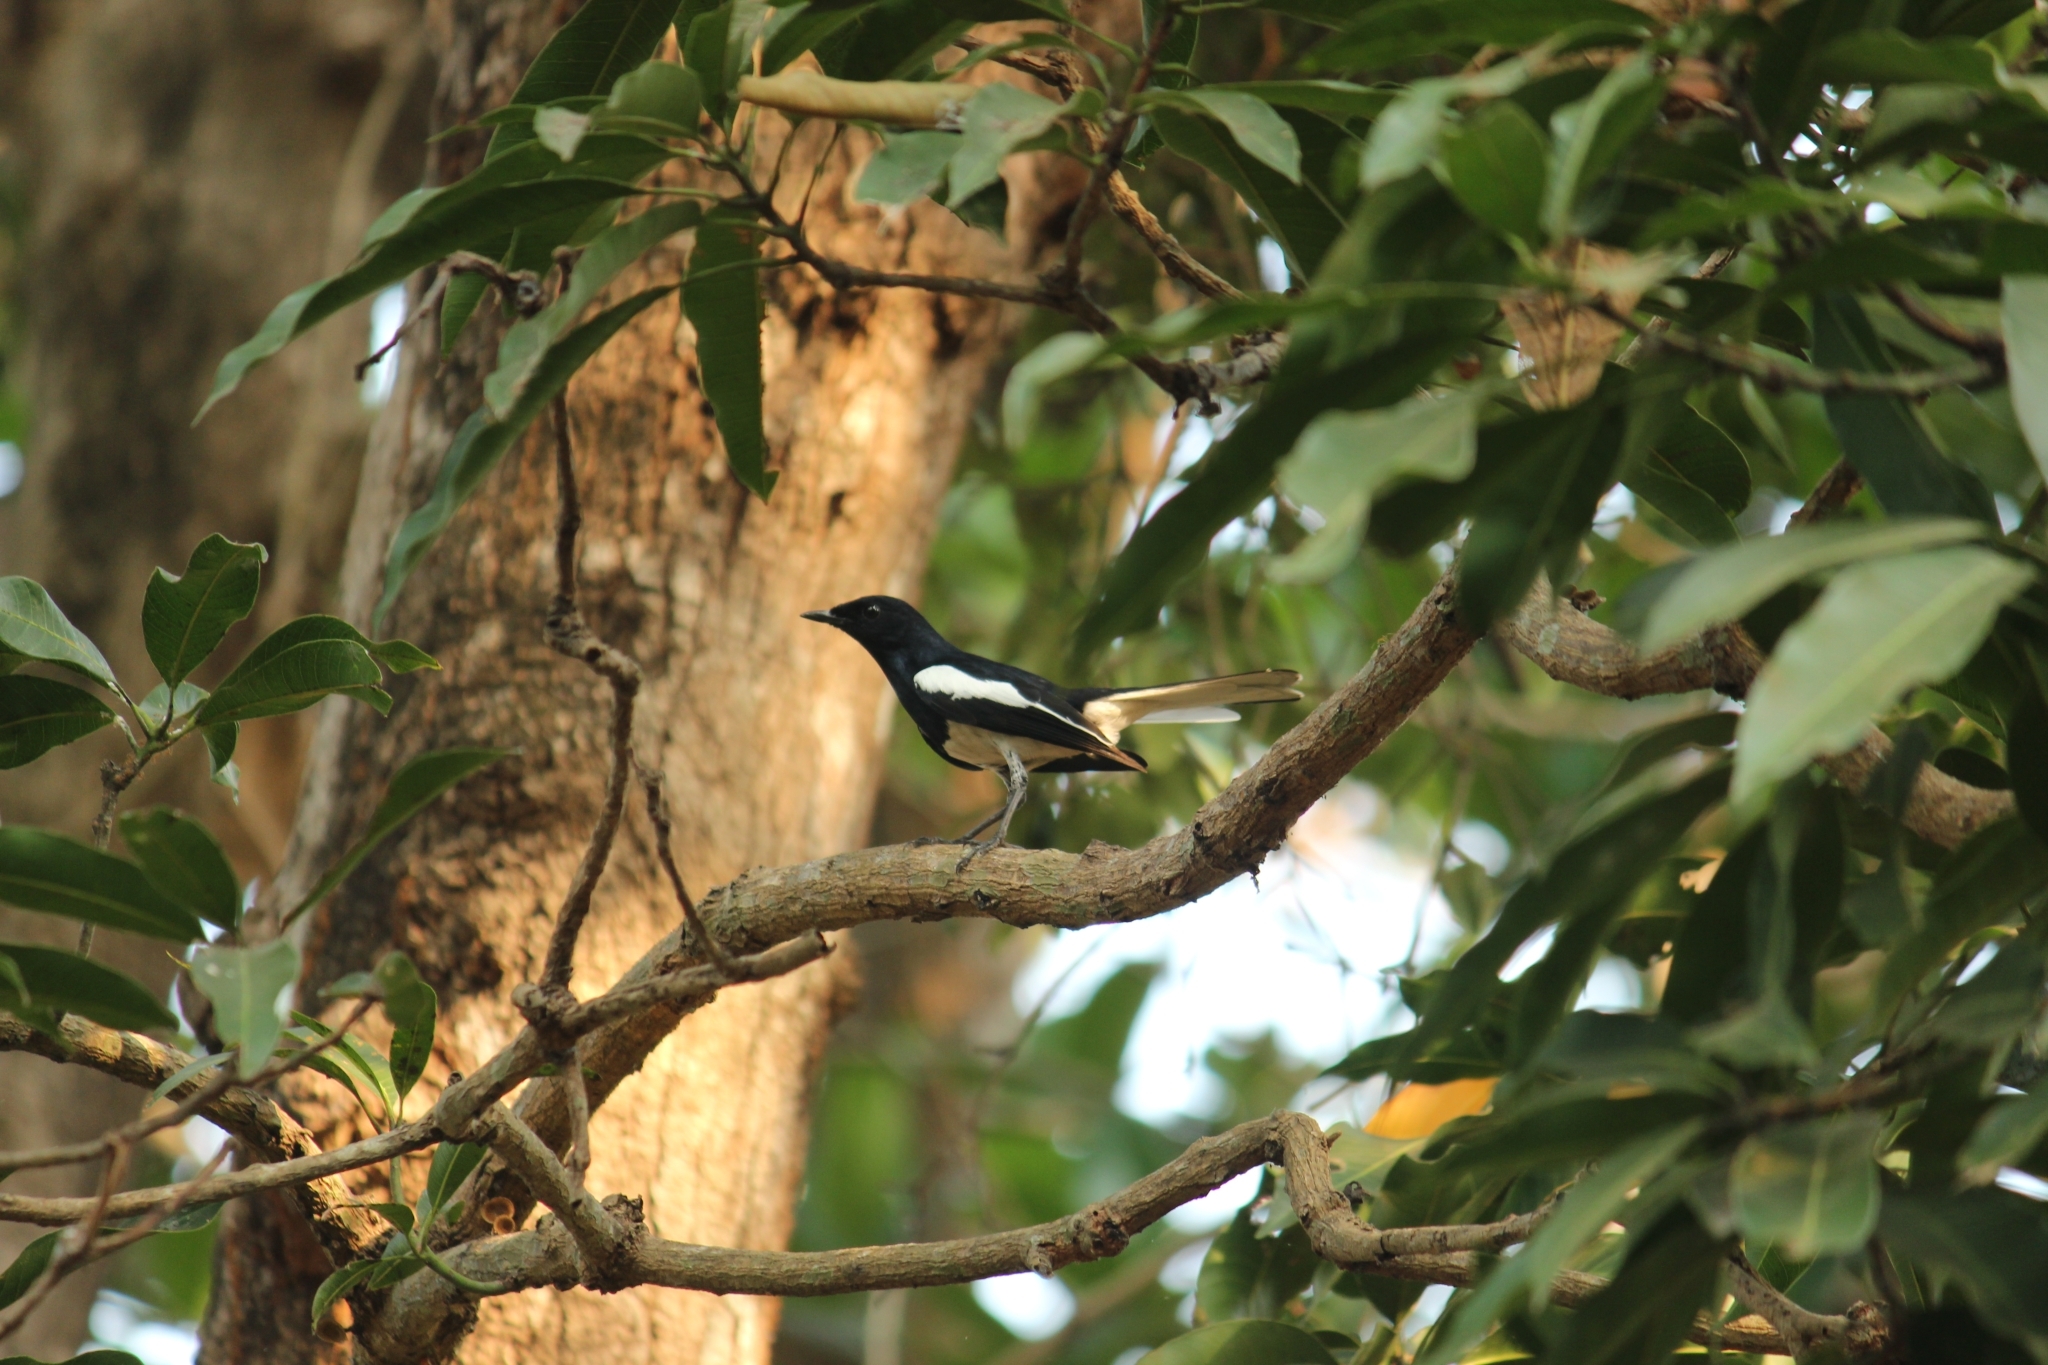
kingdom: Animalia
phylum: Chordata
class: Aves
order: Passeriformes
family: Muscicapidae
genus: Copsychus
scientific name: Copsychus saularis
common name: Oriental magpie-robin
